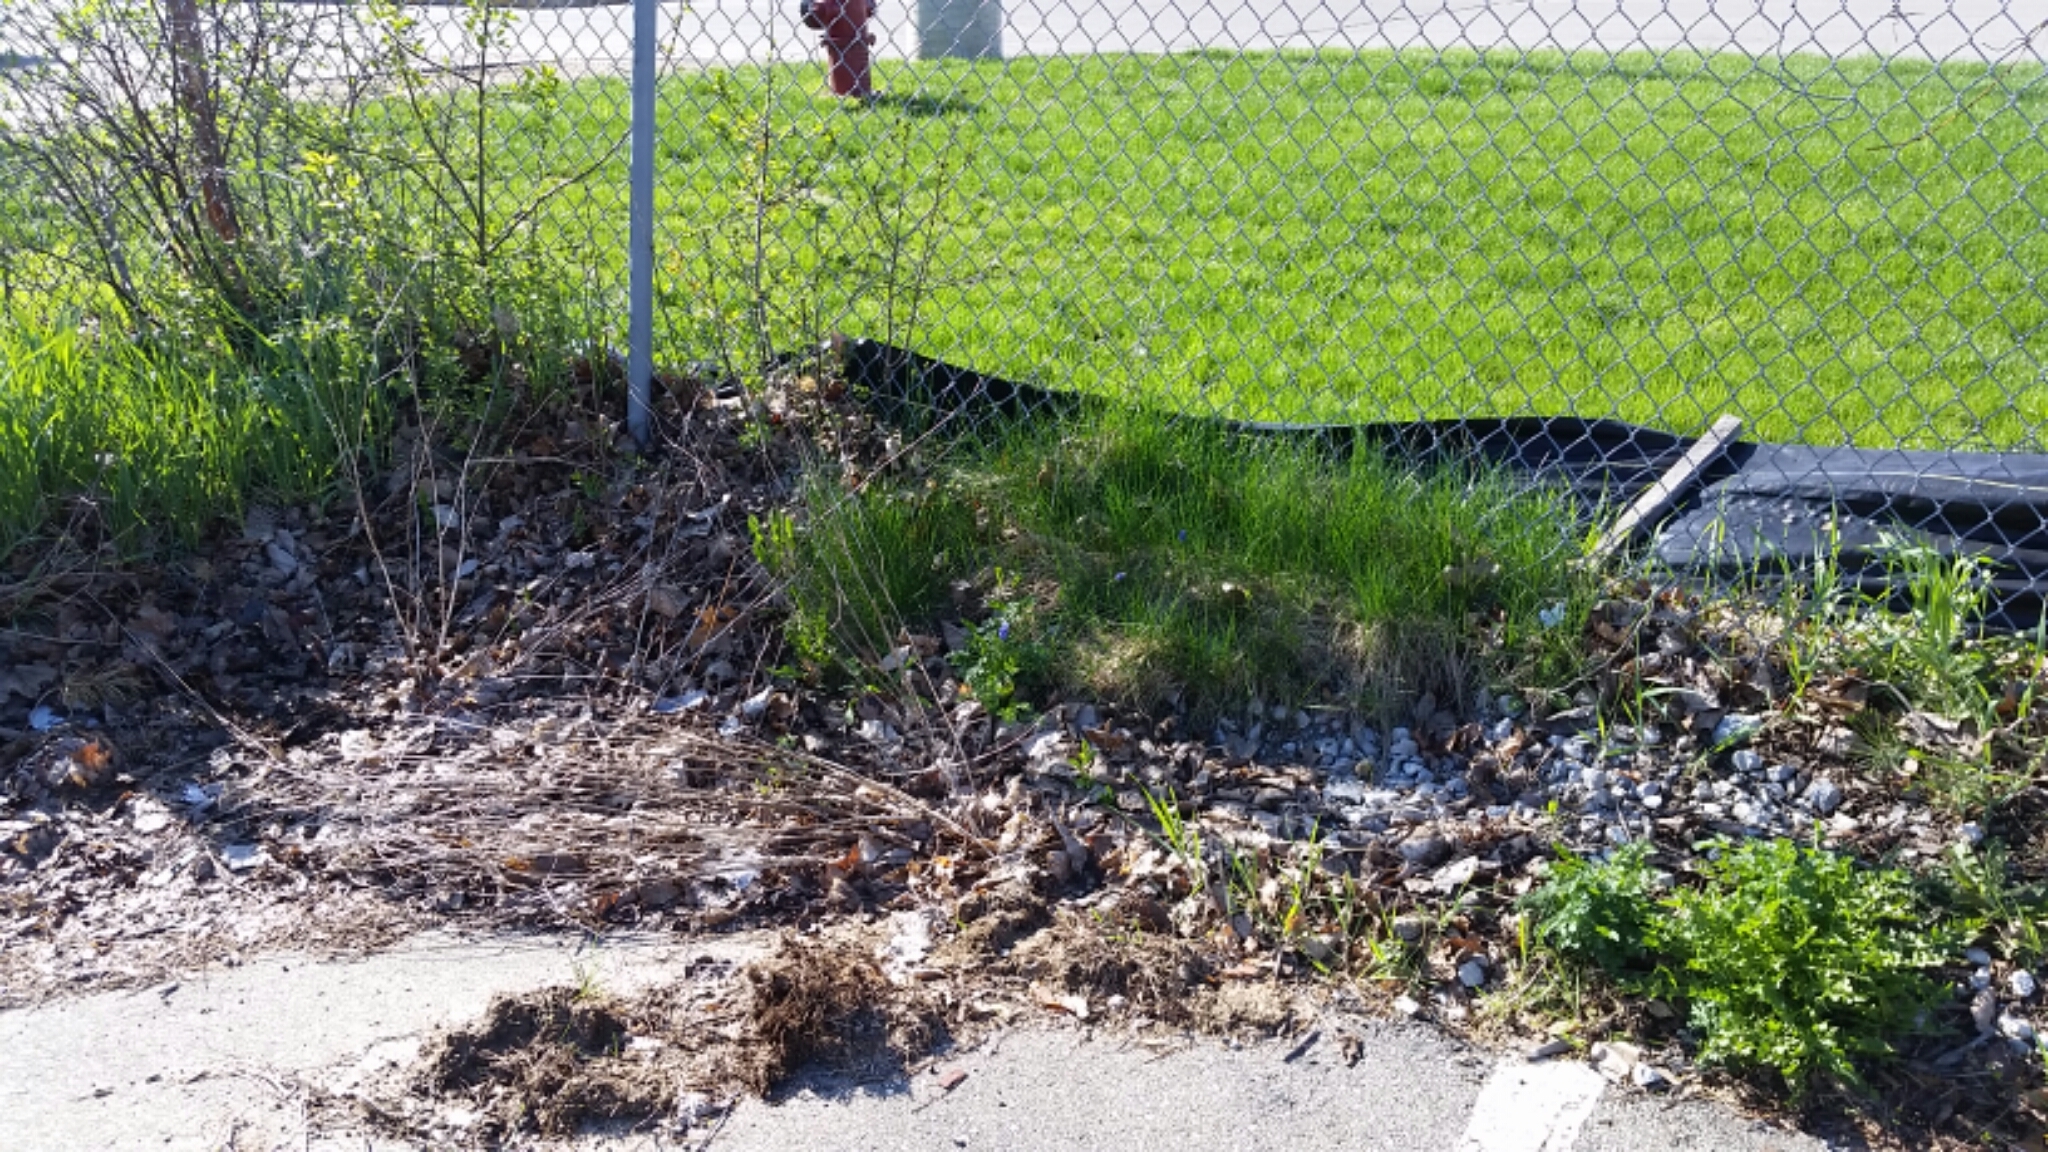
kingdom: Plantae
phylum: Tracheophyta
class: Liliopsida
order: Asparagales
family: Asparagaceae
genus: Muscari
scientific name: Muscari botryoides
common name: Compact grape-hyacinth
